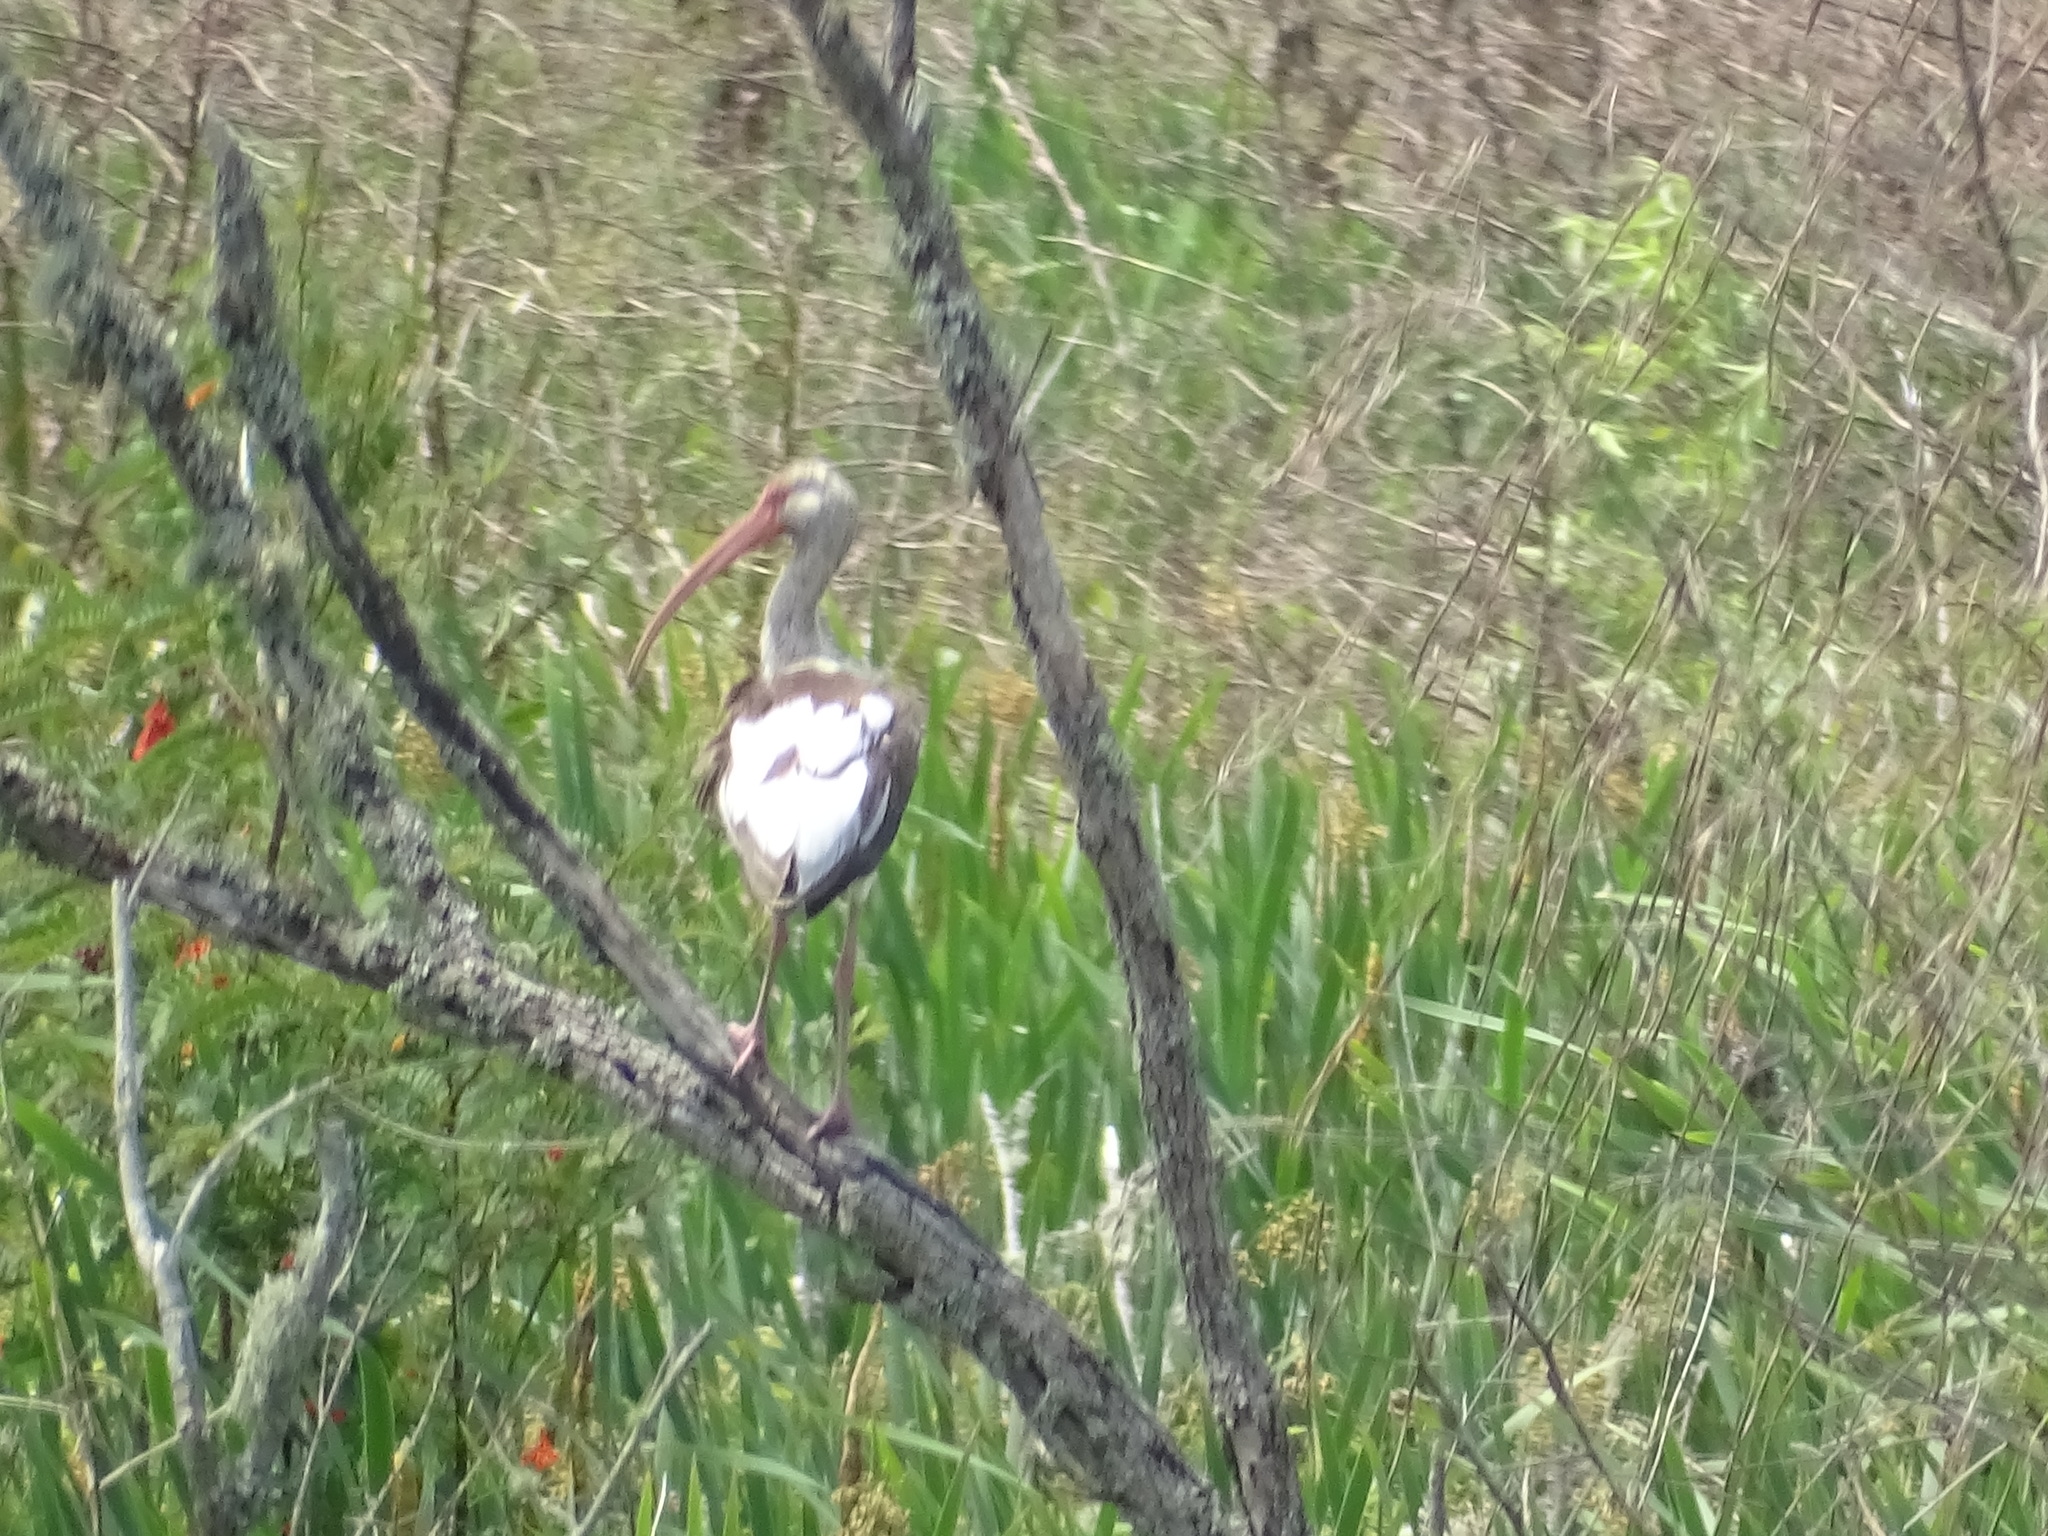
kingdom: Animalia
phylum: Chordata
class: Aves
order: Pelecaniformes
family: Threskiornithidae
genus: Eudocimus
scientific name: Eudocimus albus
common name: White ibis
